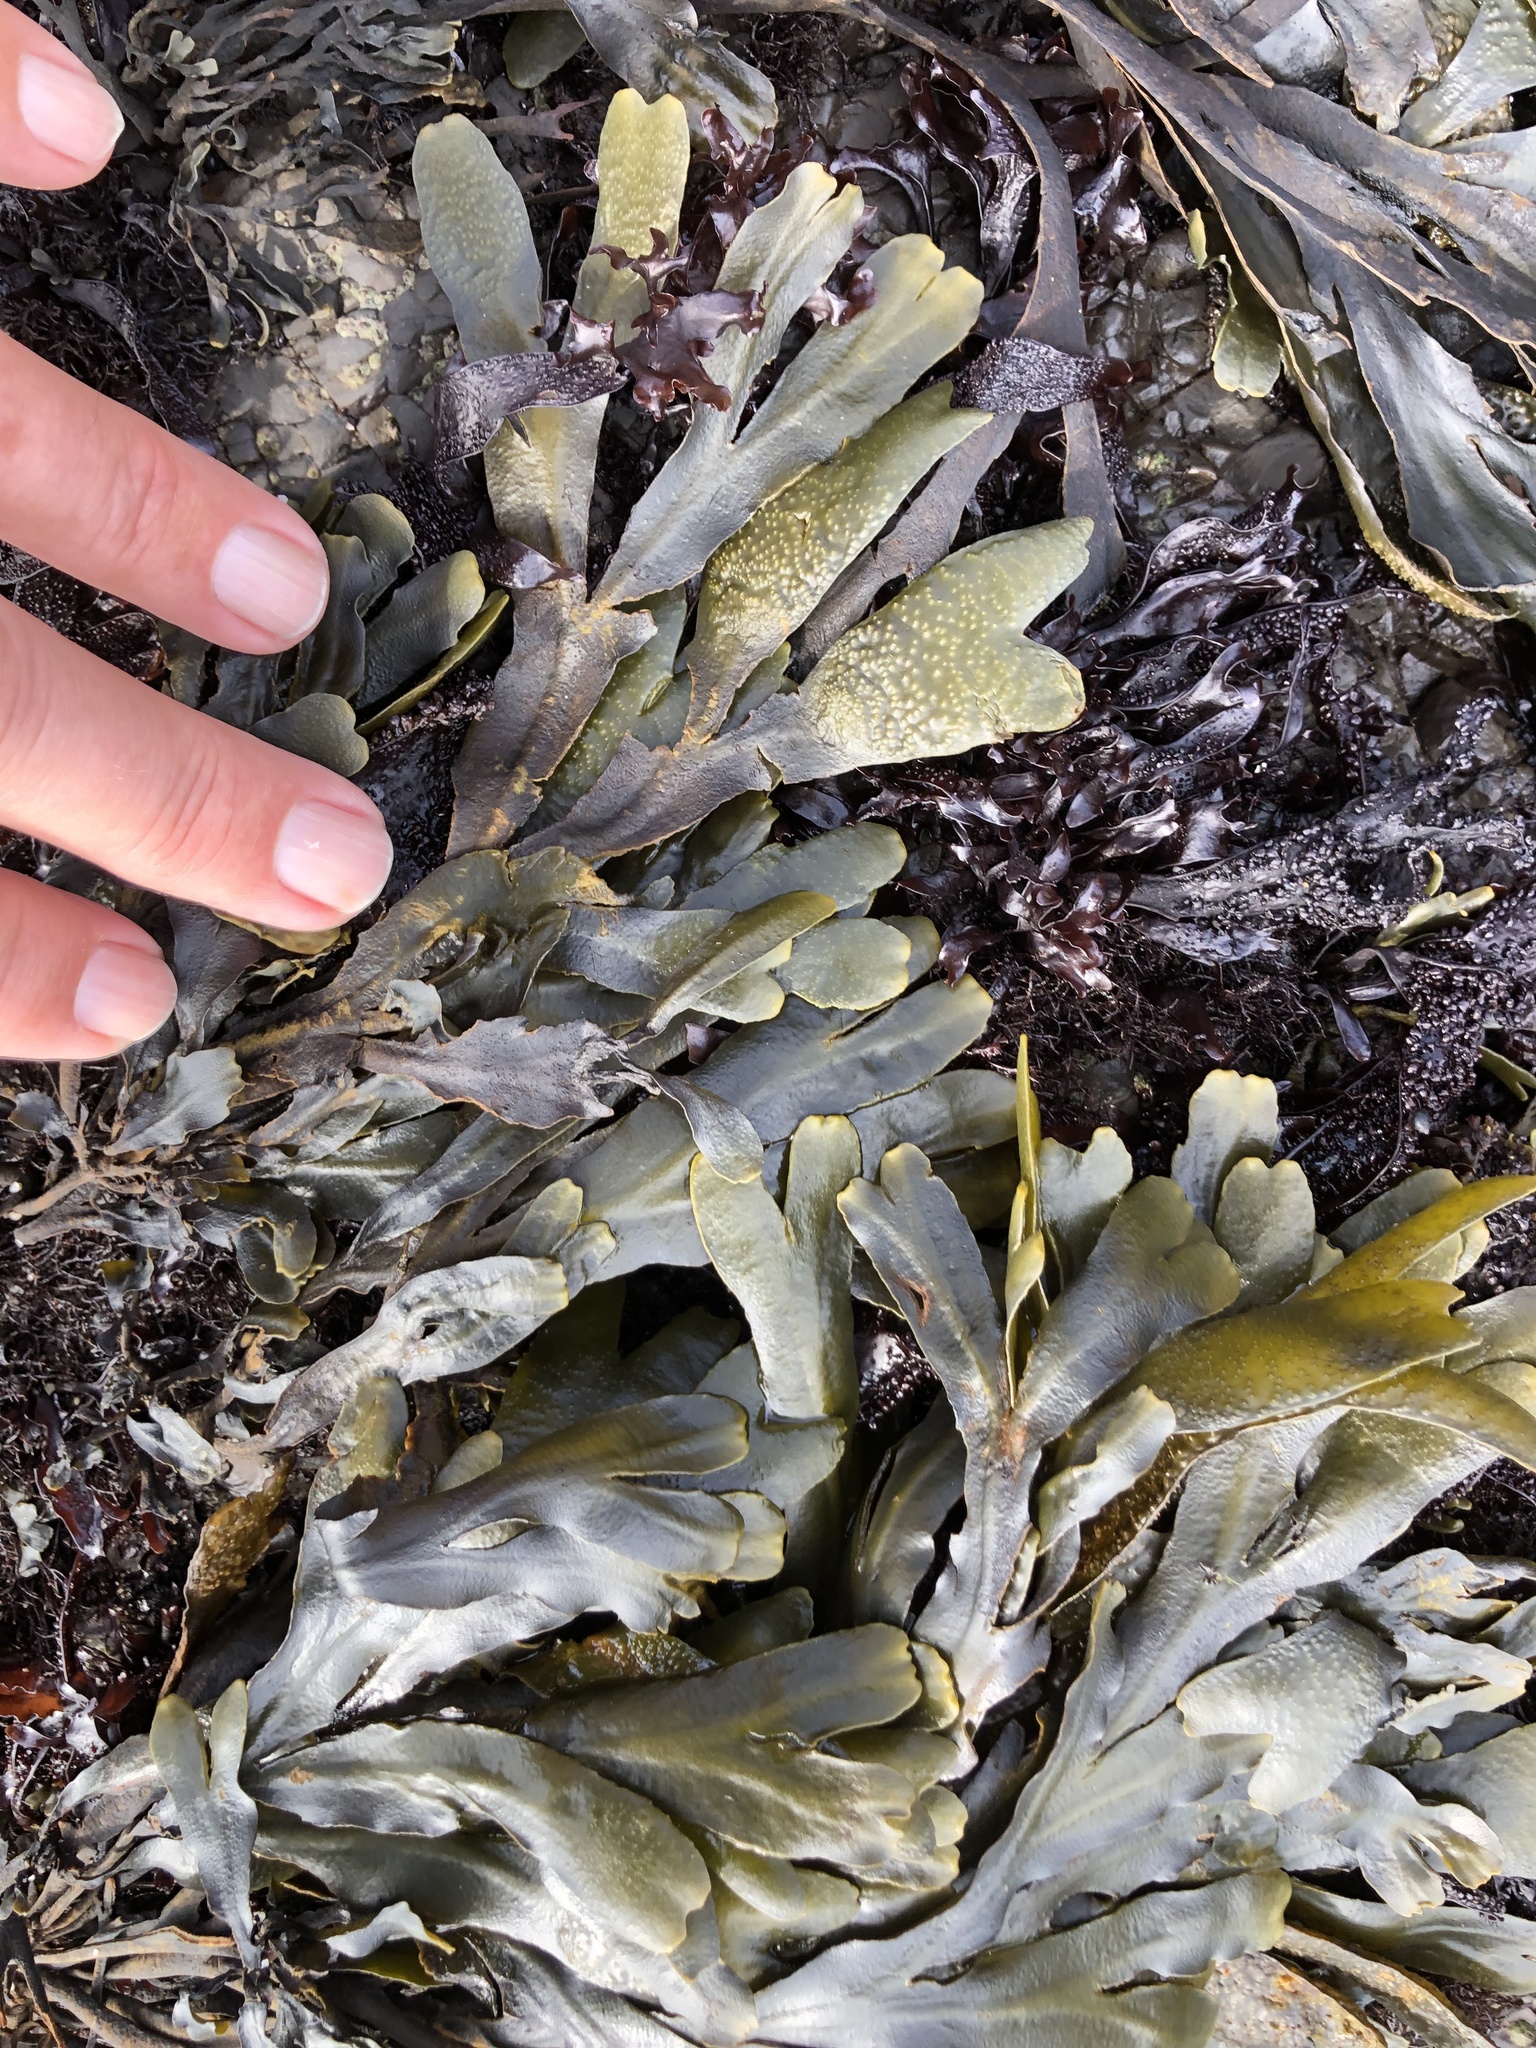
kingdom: Chromista
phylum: Ochrophyta
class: Phaeophyceae
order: Fucales
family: Fucaceae
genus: Fucus
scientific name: Fucus distichus
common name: Rockweed
